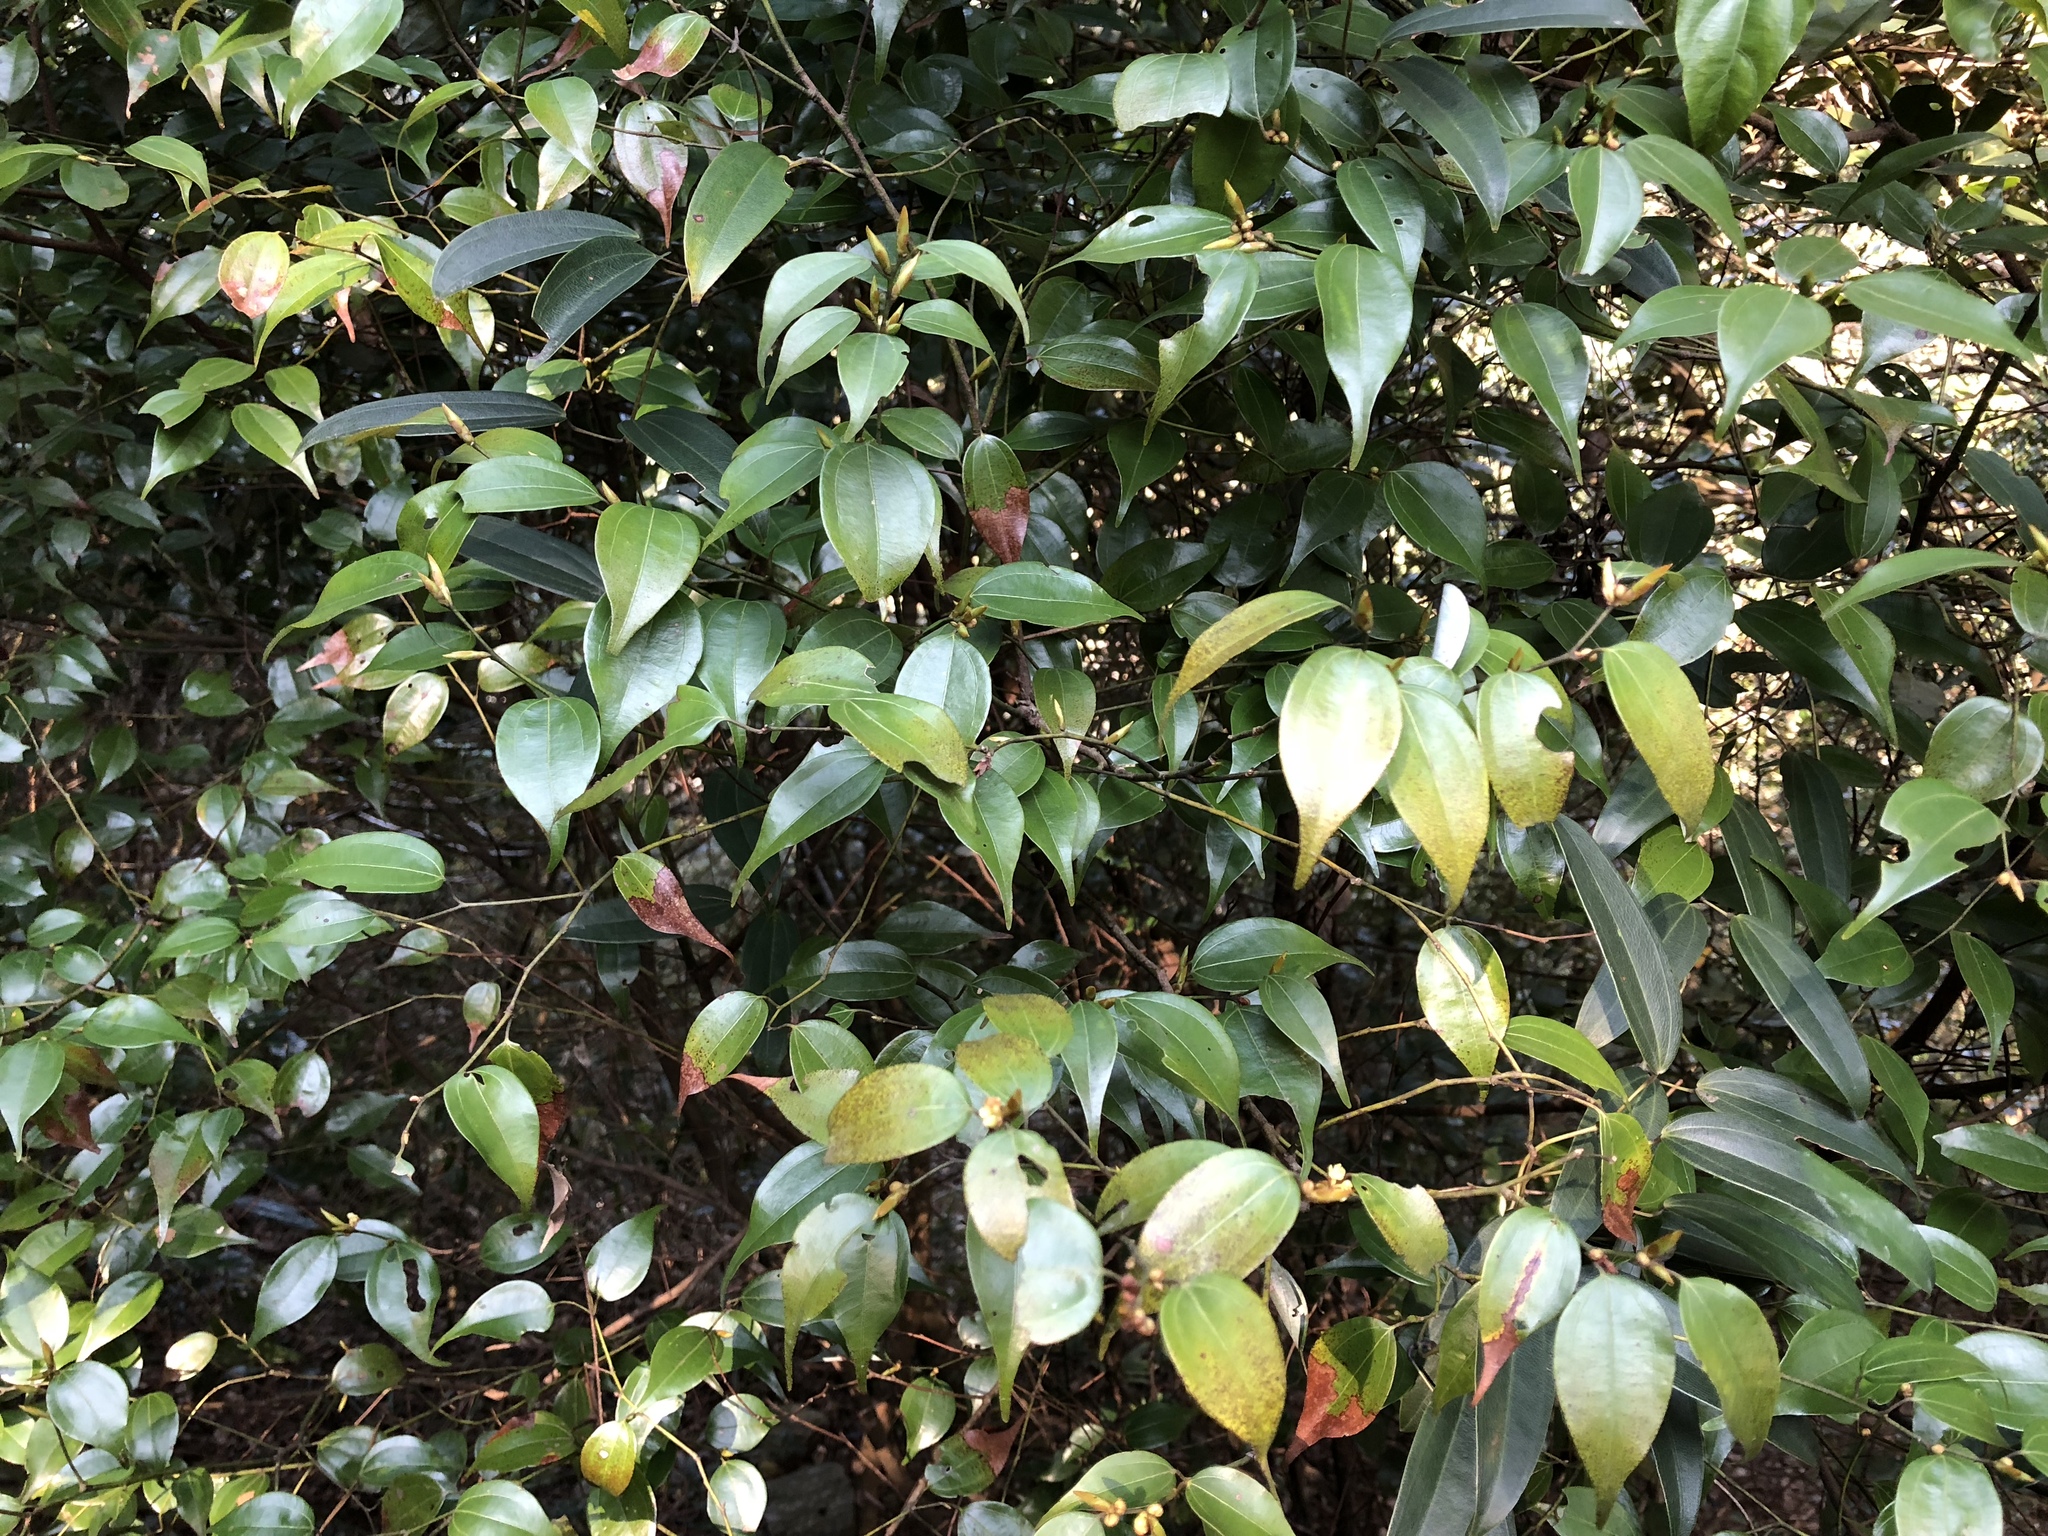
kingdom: Plantae
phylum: Tracheophyta
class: Magnoliopsida
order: Laurales
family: Lauraceae
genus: Lindera
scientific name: Lindera aggregata
